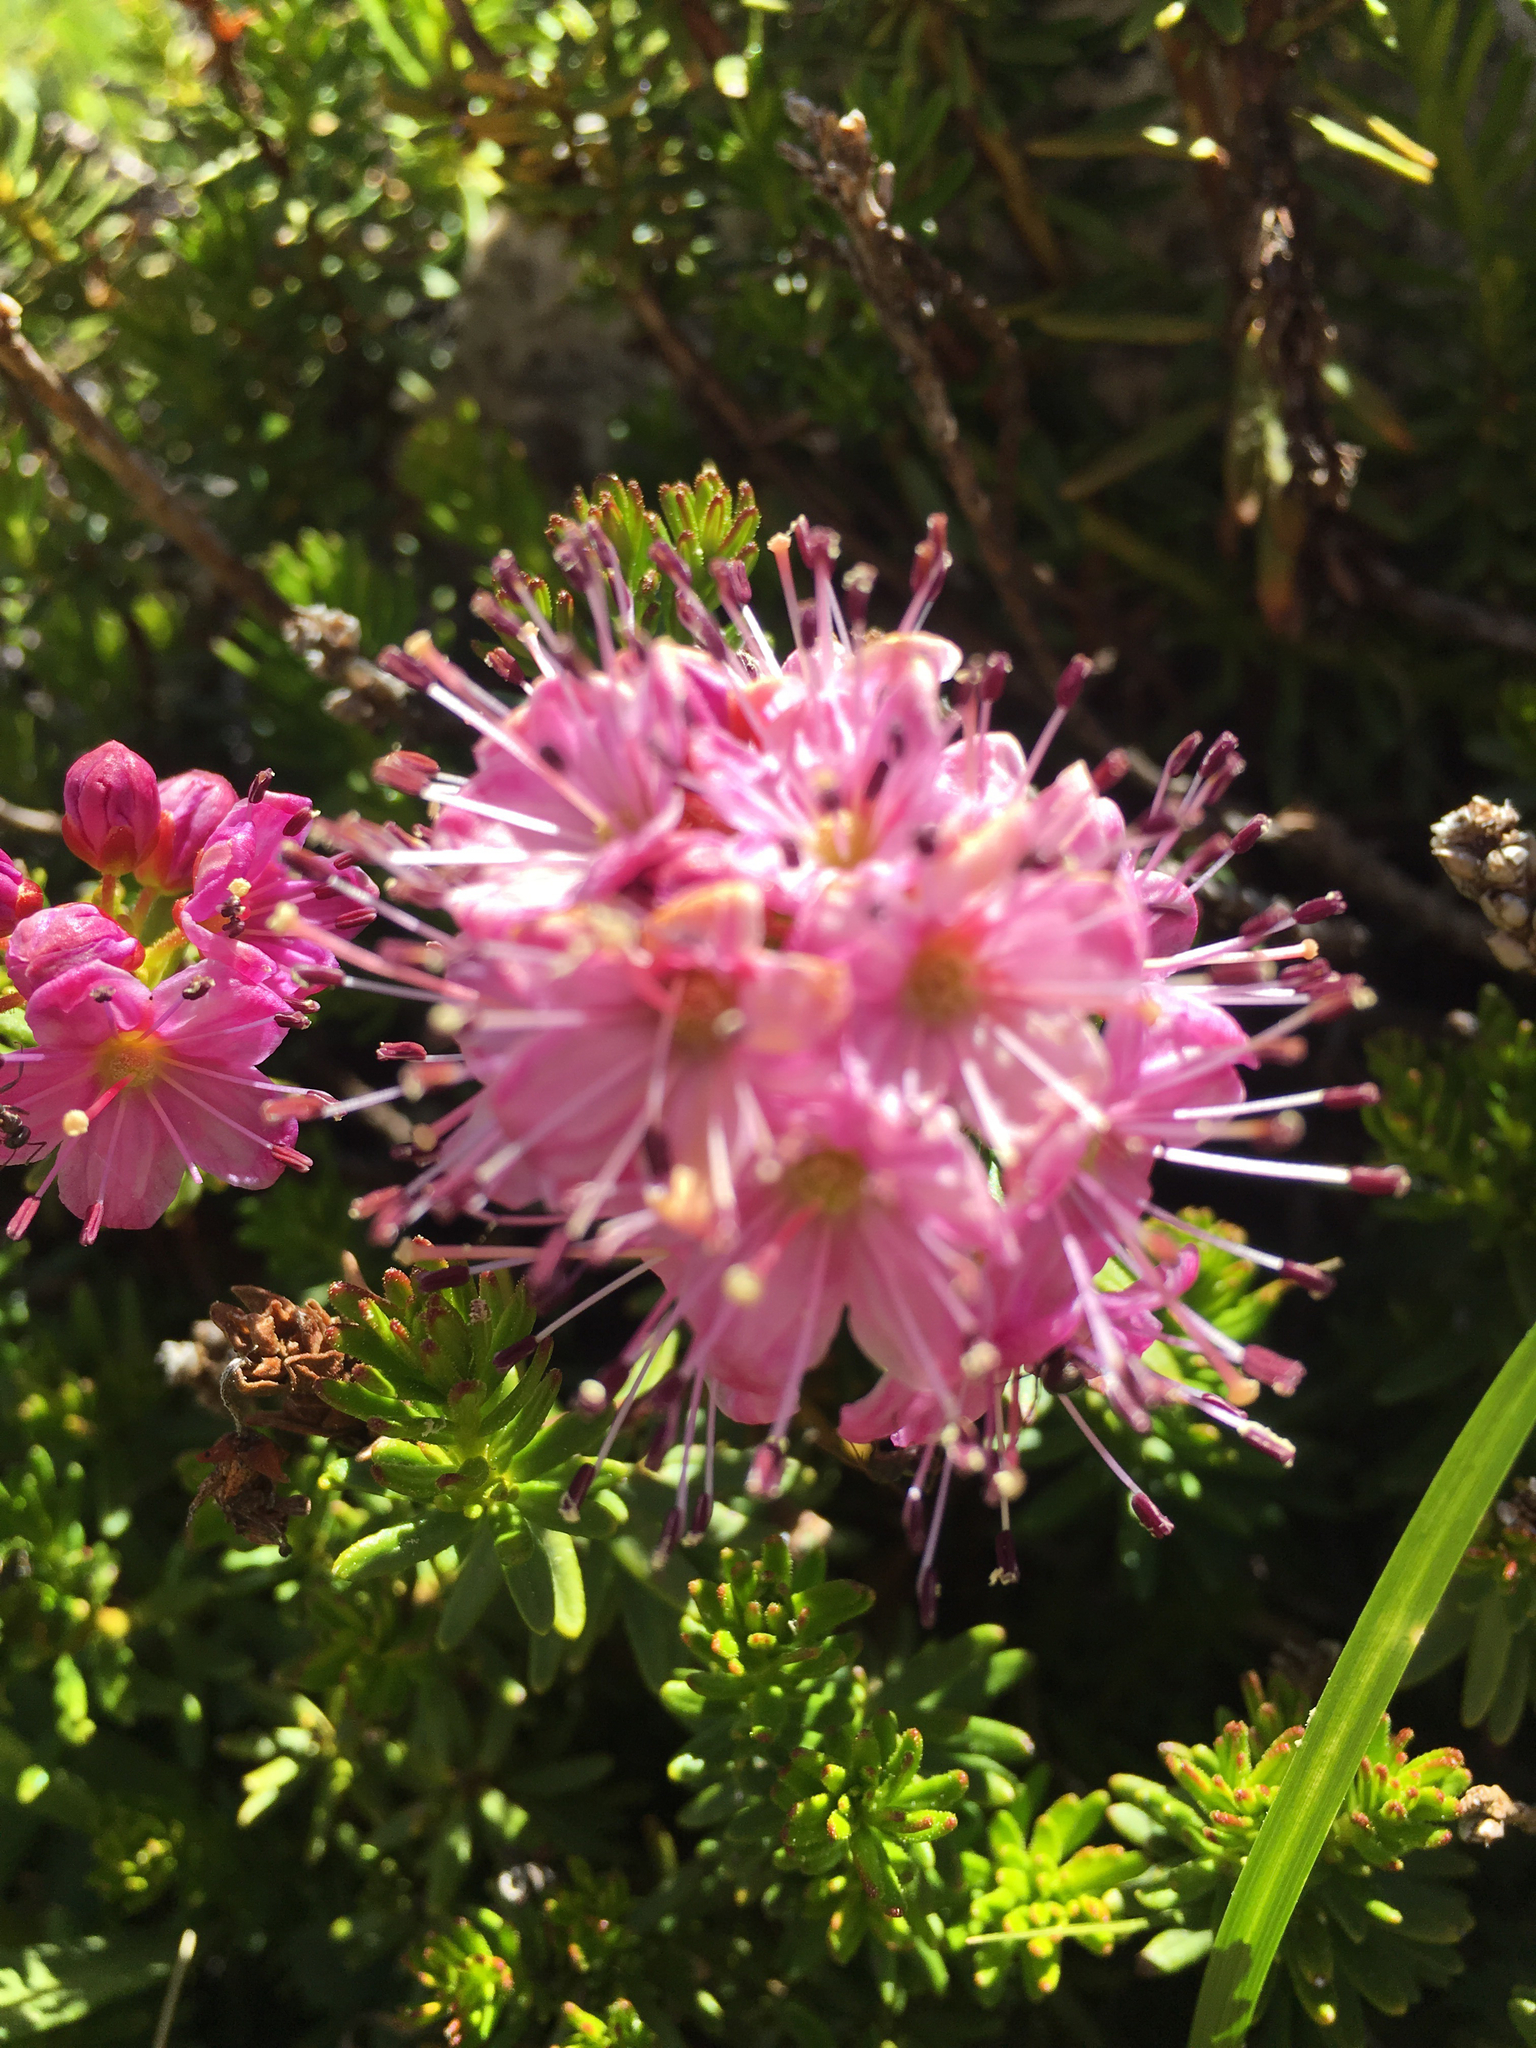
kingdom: Plantae
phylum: Tracheophyta
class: Magnoliopsida
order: Ericales
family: Ericaceae
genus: Phyllodoce
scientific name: Phyllodoce breweri
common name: Brewer's mountain-heather
